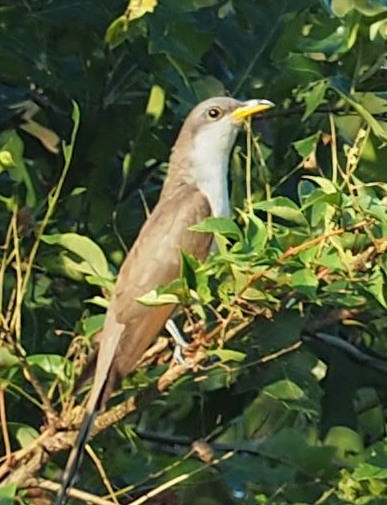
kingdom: Animalia
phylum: Chordata
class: Aves
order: Cuculiformes
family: Cuculidae
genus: Coccyzus
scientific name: Coccyzus americanus
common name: Yellow-billed cuckoo
